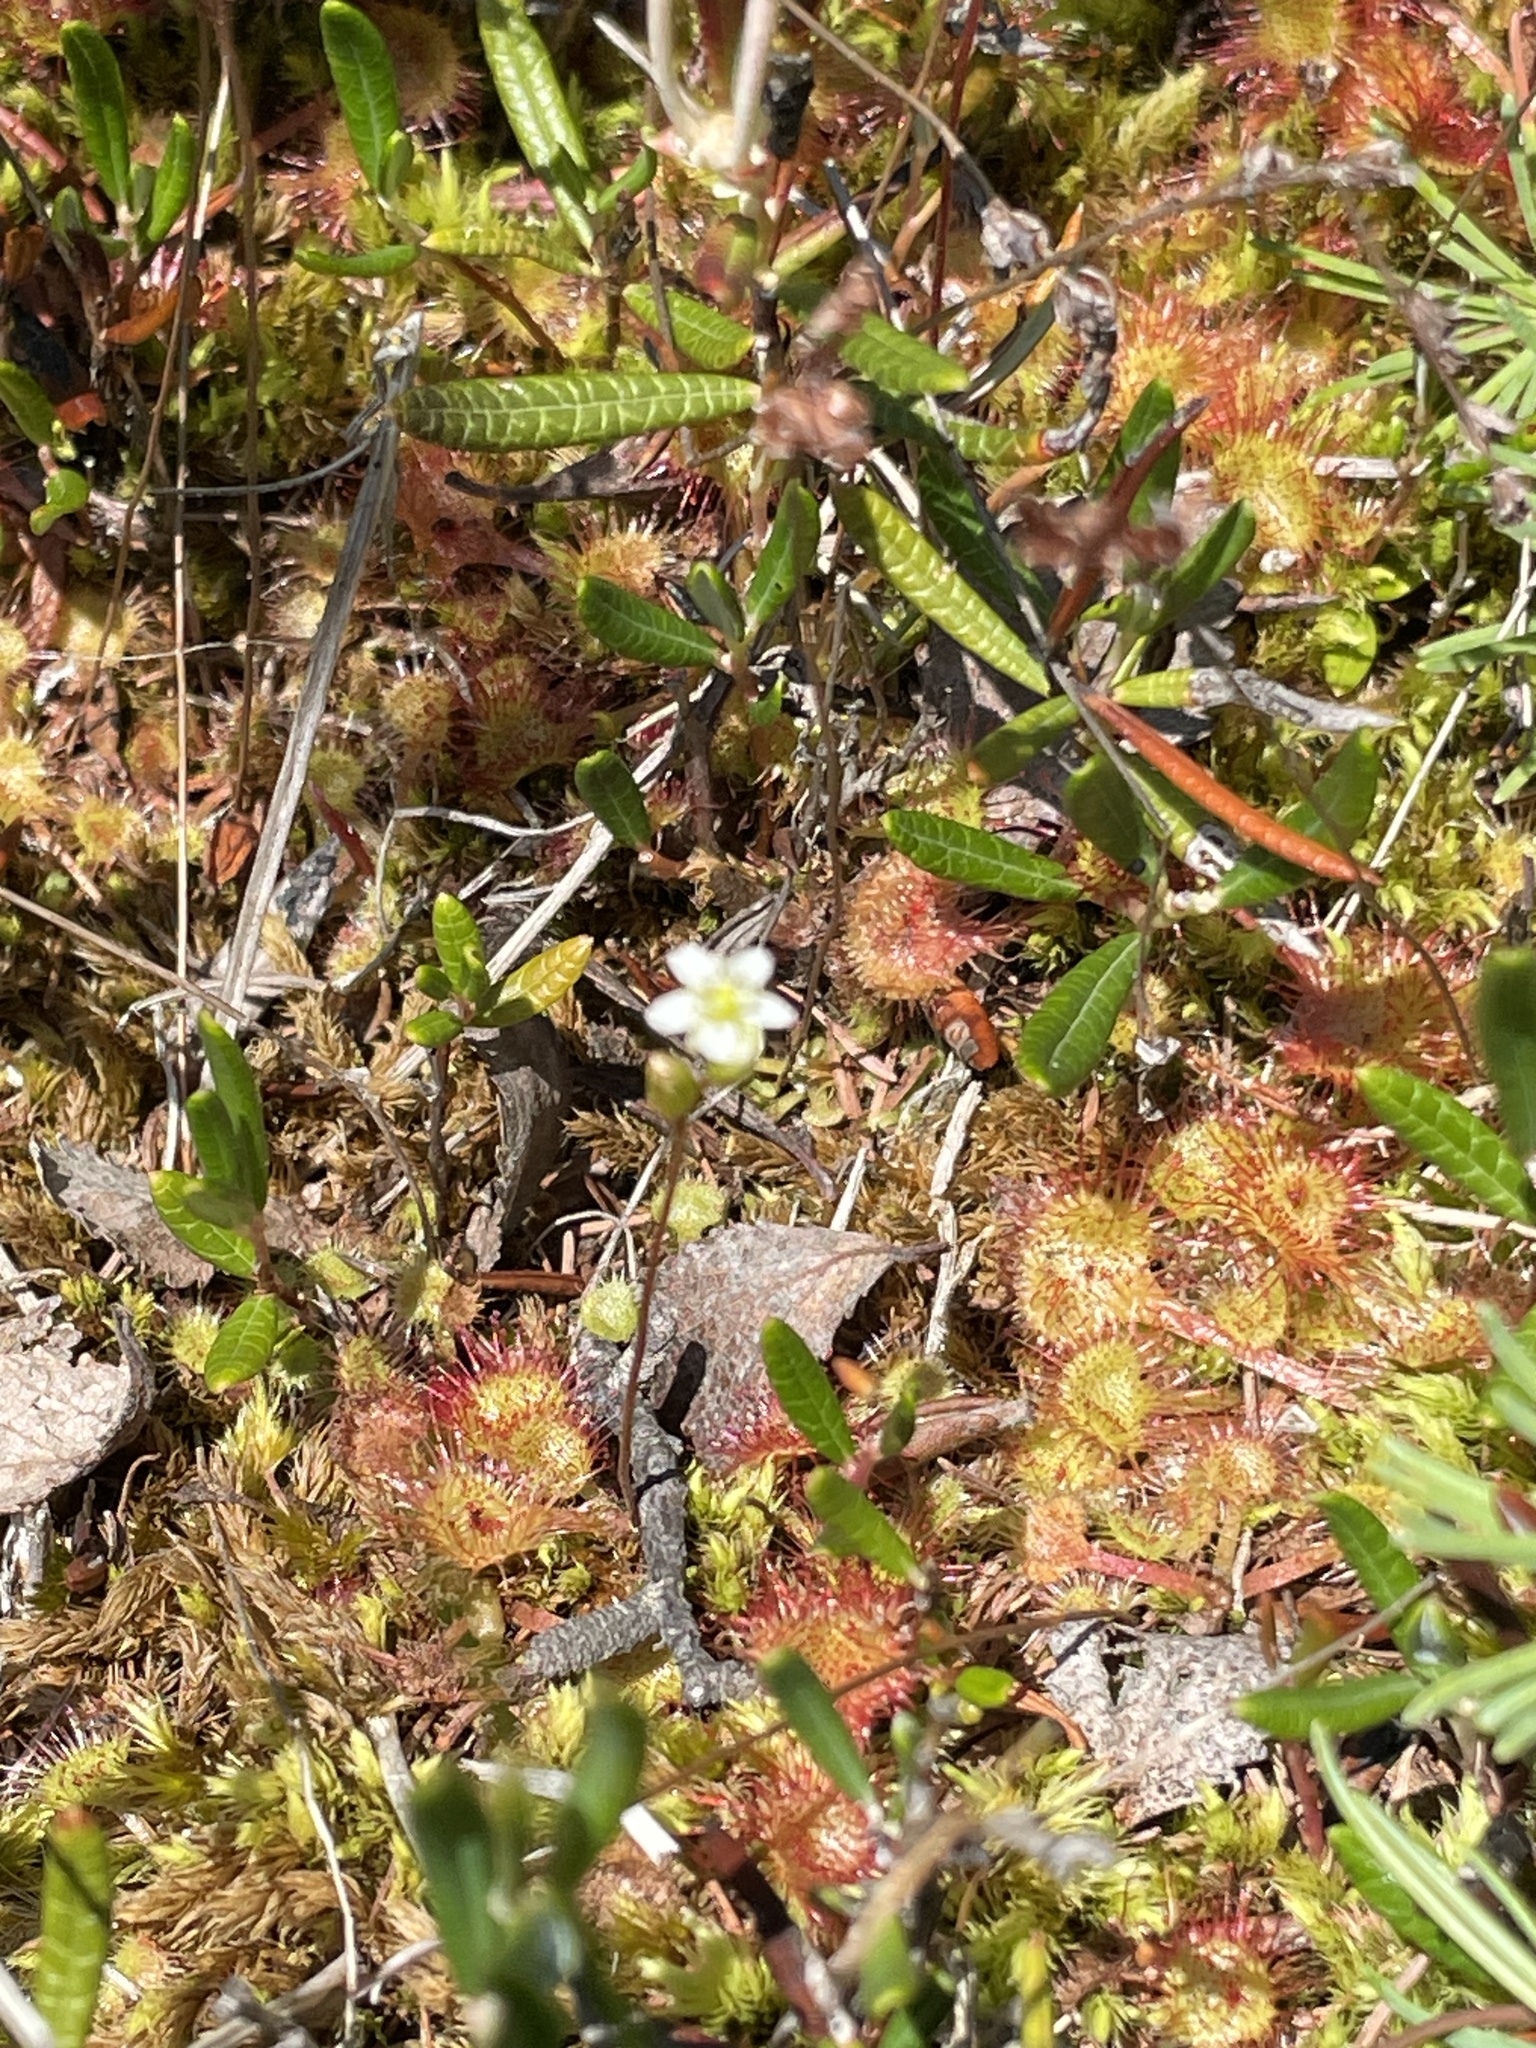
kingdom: Plantae
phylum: Tracheophyta
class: Magnoliopsida
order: Caryophyllales
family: Droseraceae
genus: Drosera
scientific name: Drosera rotundifolia
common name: Round-leaved sundew
